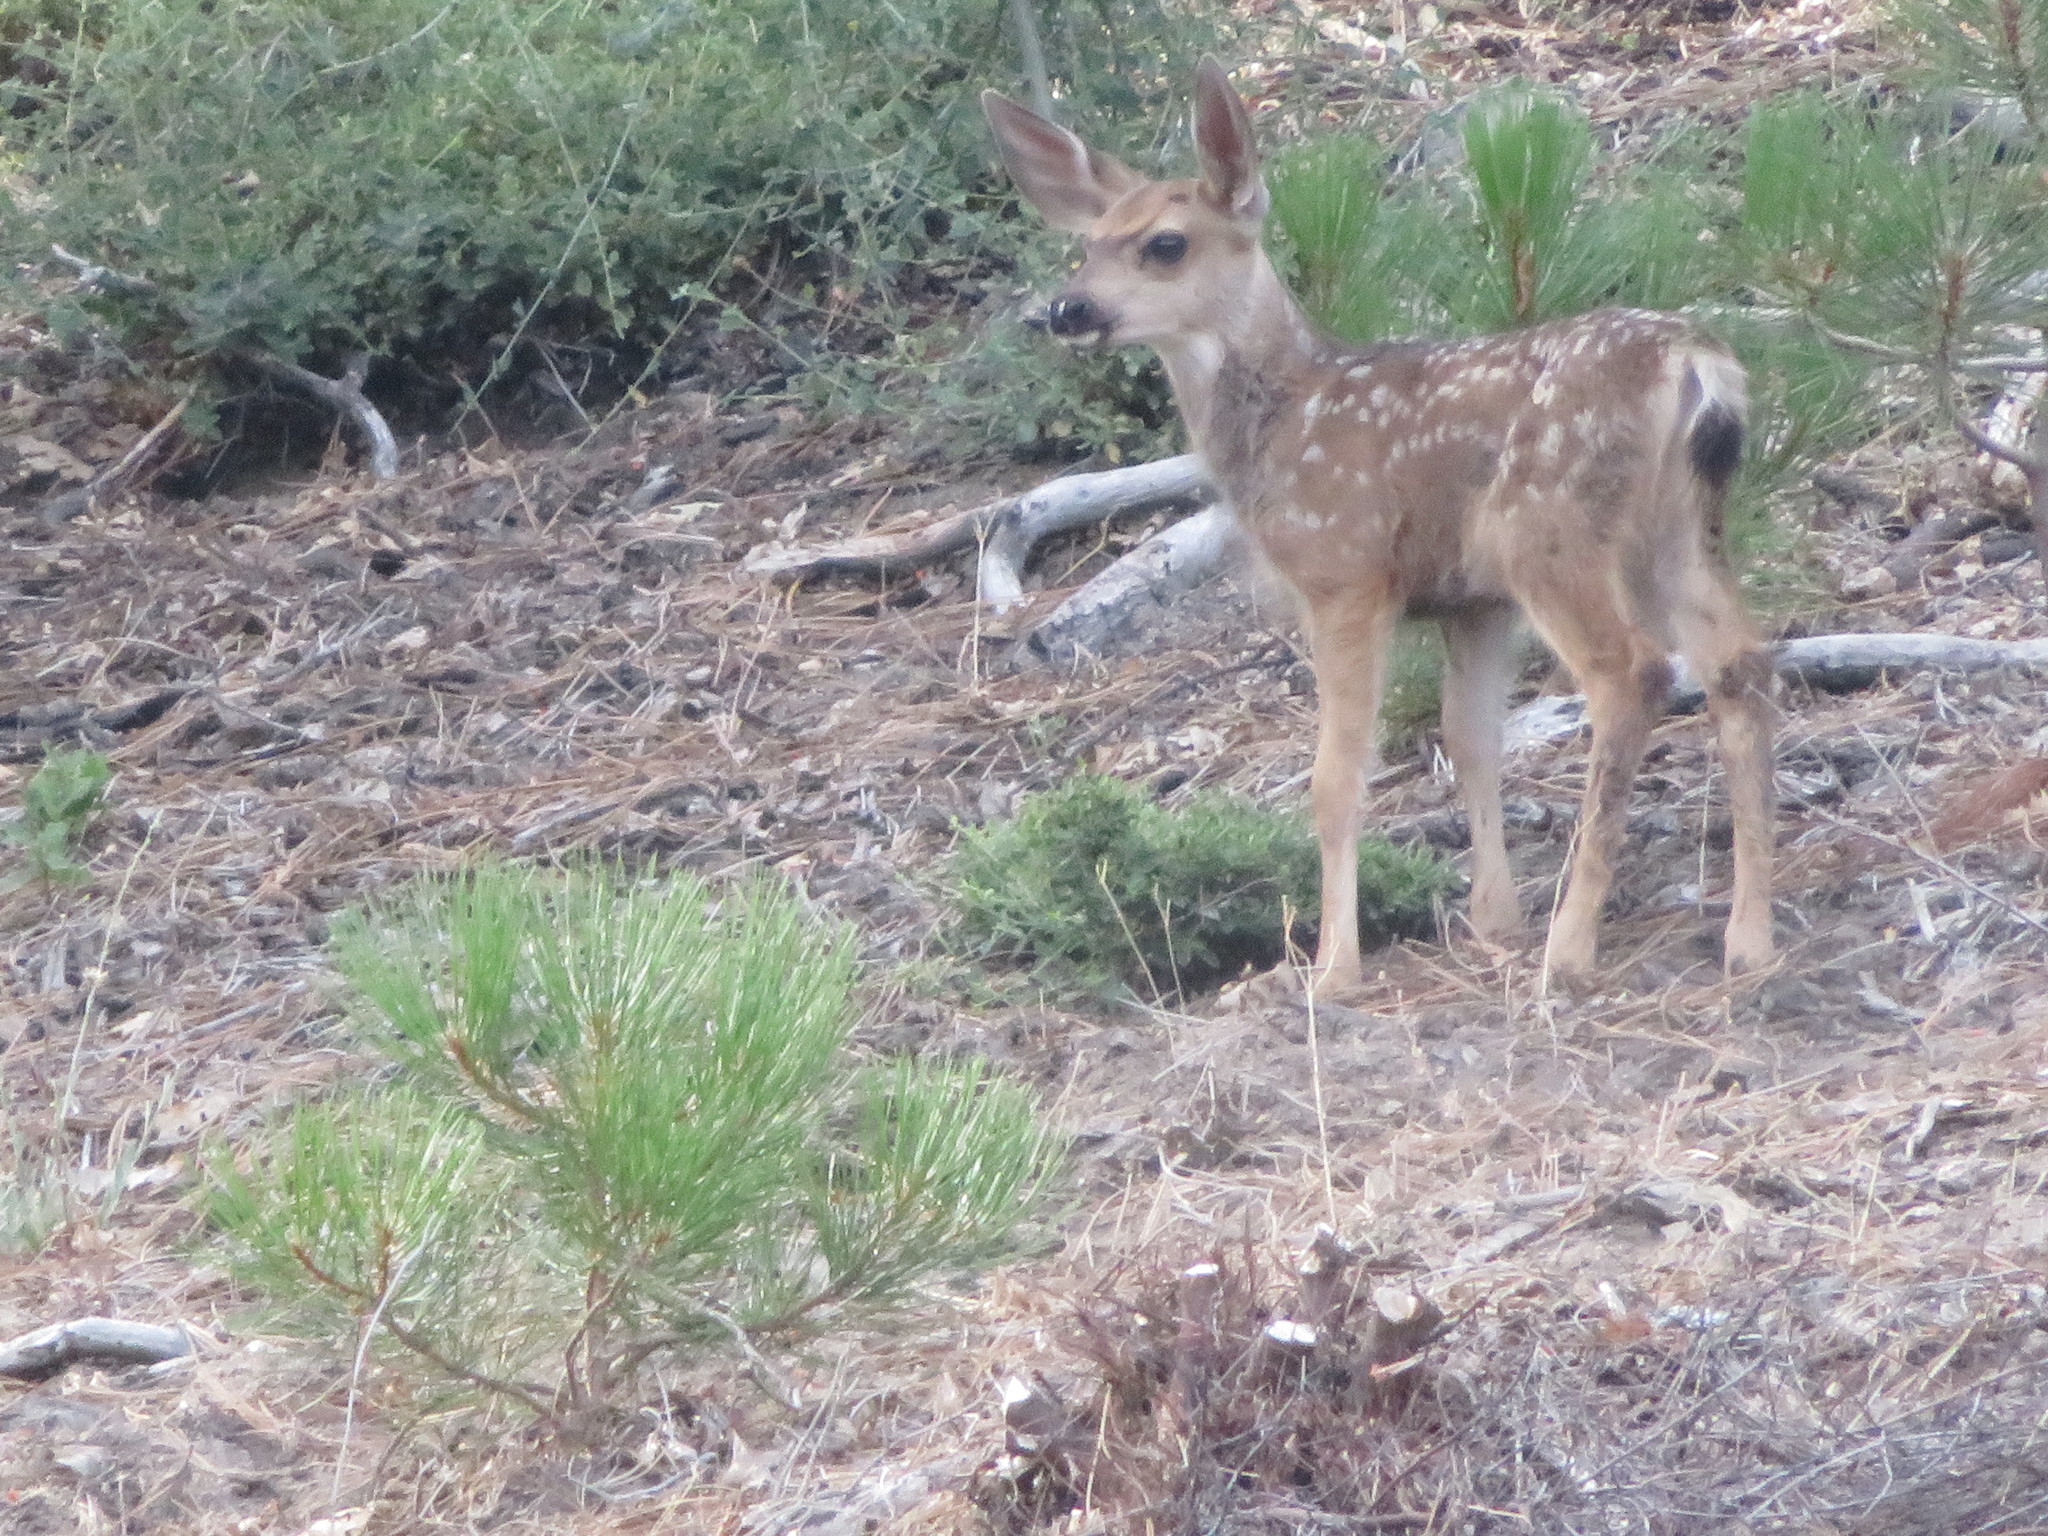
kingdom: Animalia
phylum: Chordata
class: Mammalia
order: Artiodactyla
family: Cervidae
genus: Odocoileus
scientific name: Odocoileus hemionus
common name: Mule deer
